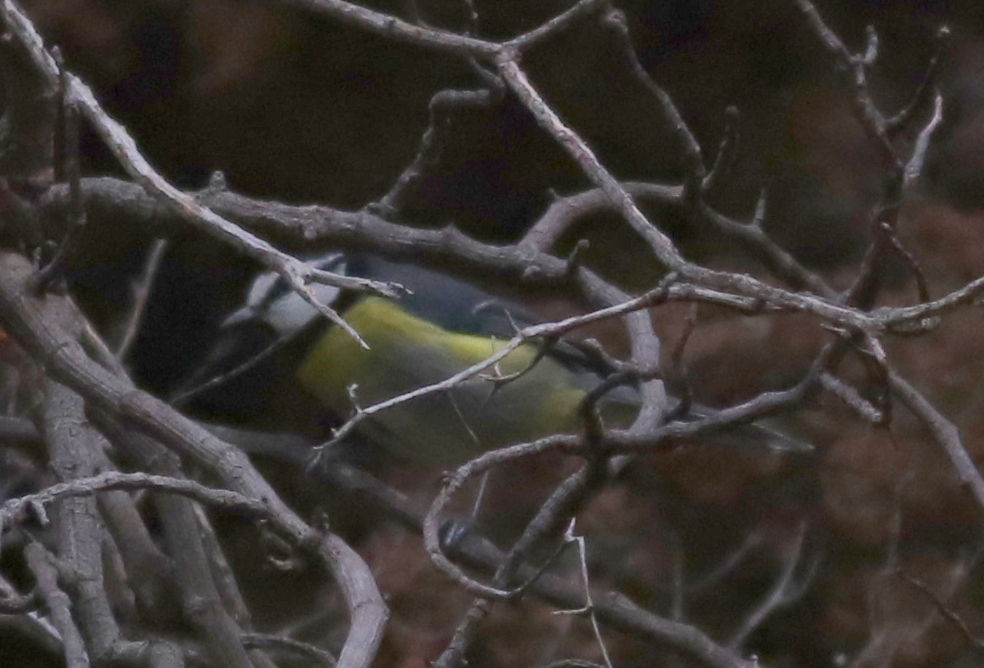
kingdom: Animalia
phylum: Chordata
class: Aves
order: Passeriformes
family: Paridae
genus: Cyanistes
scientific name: Cyanistes teneriffae
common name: African blue tit
